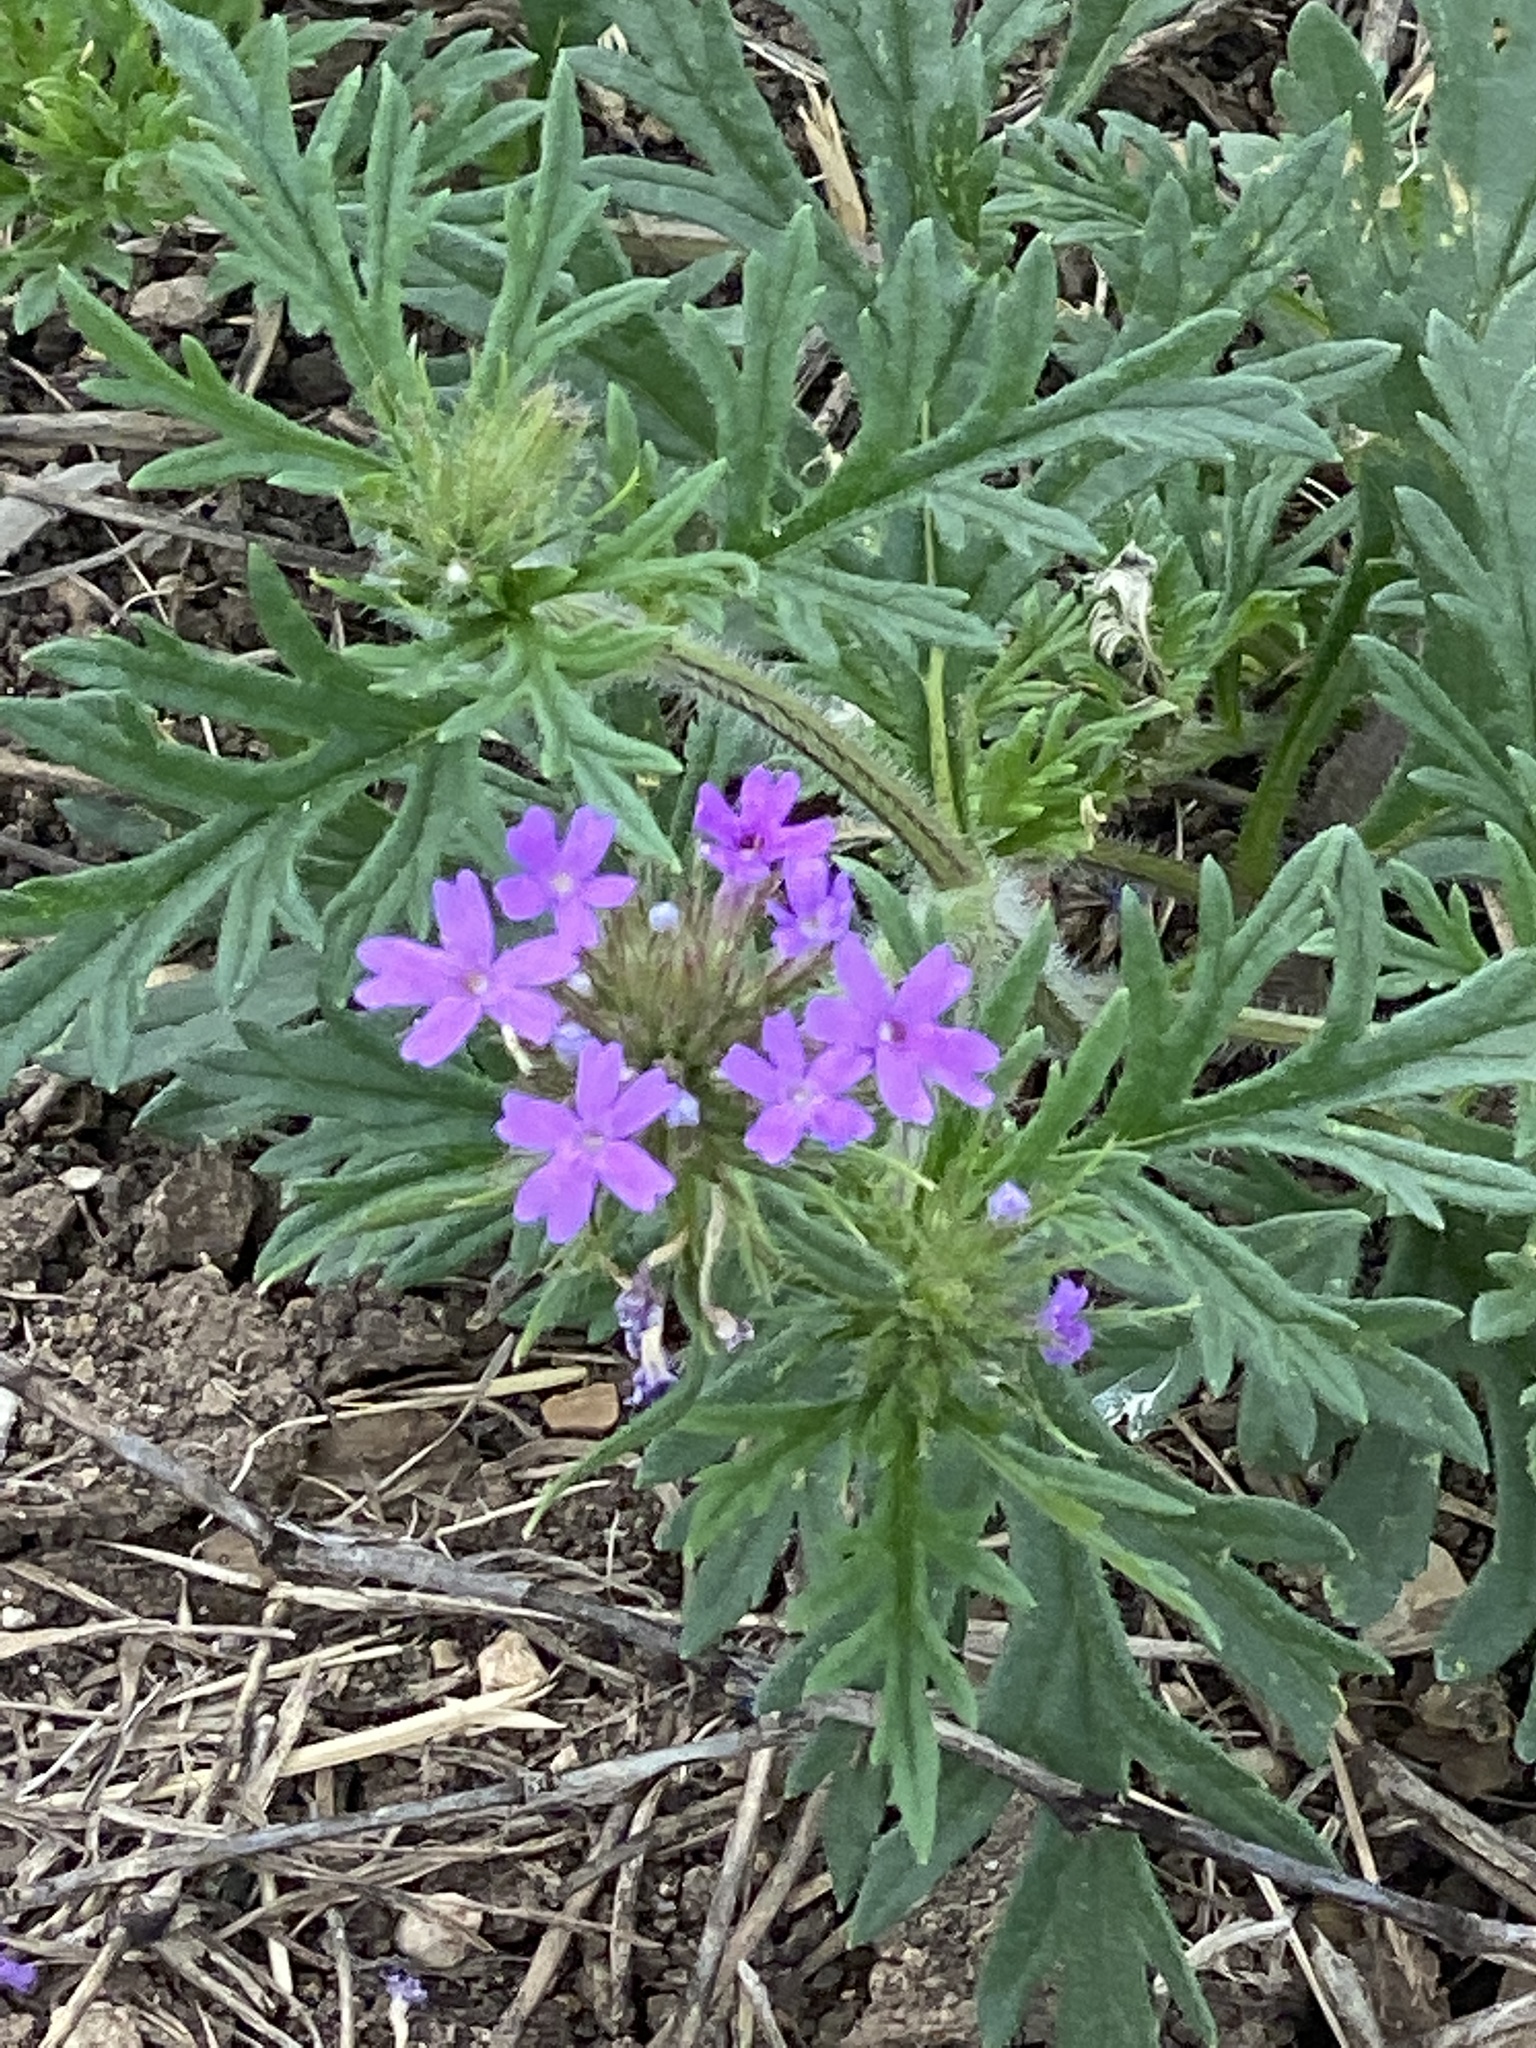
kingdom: Plantae
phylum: Tracheophyta
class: Magnoliopsida
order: Lamiales
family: Verbenaceae
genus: Verbena
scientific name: Verbena bipinnatifida
